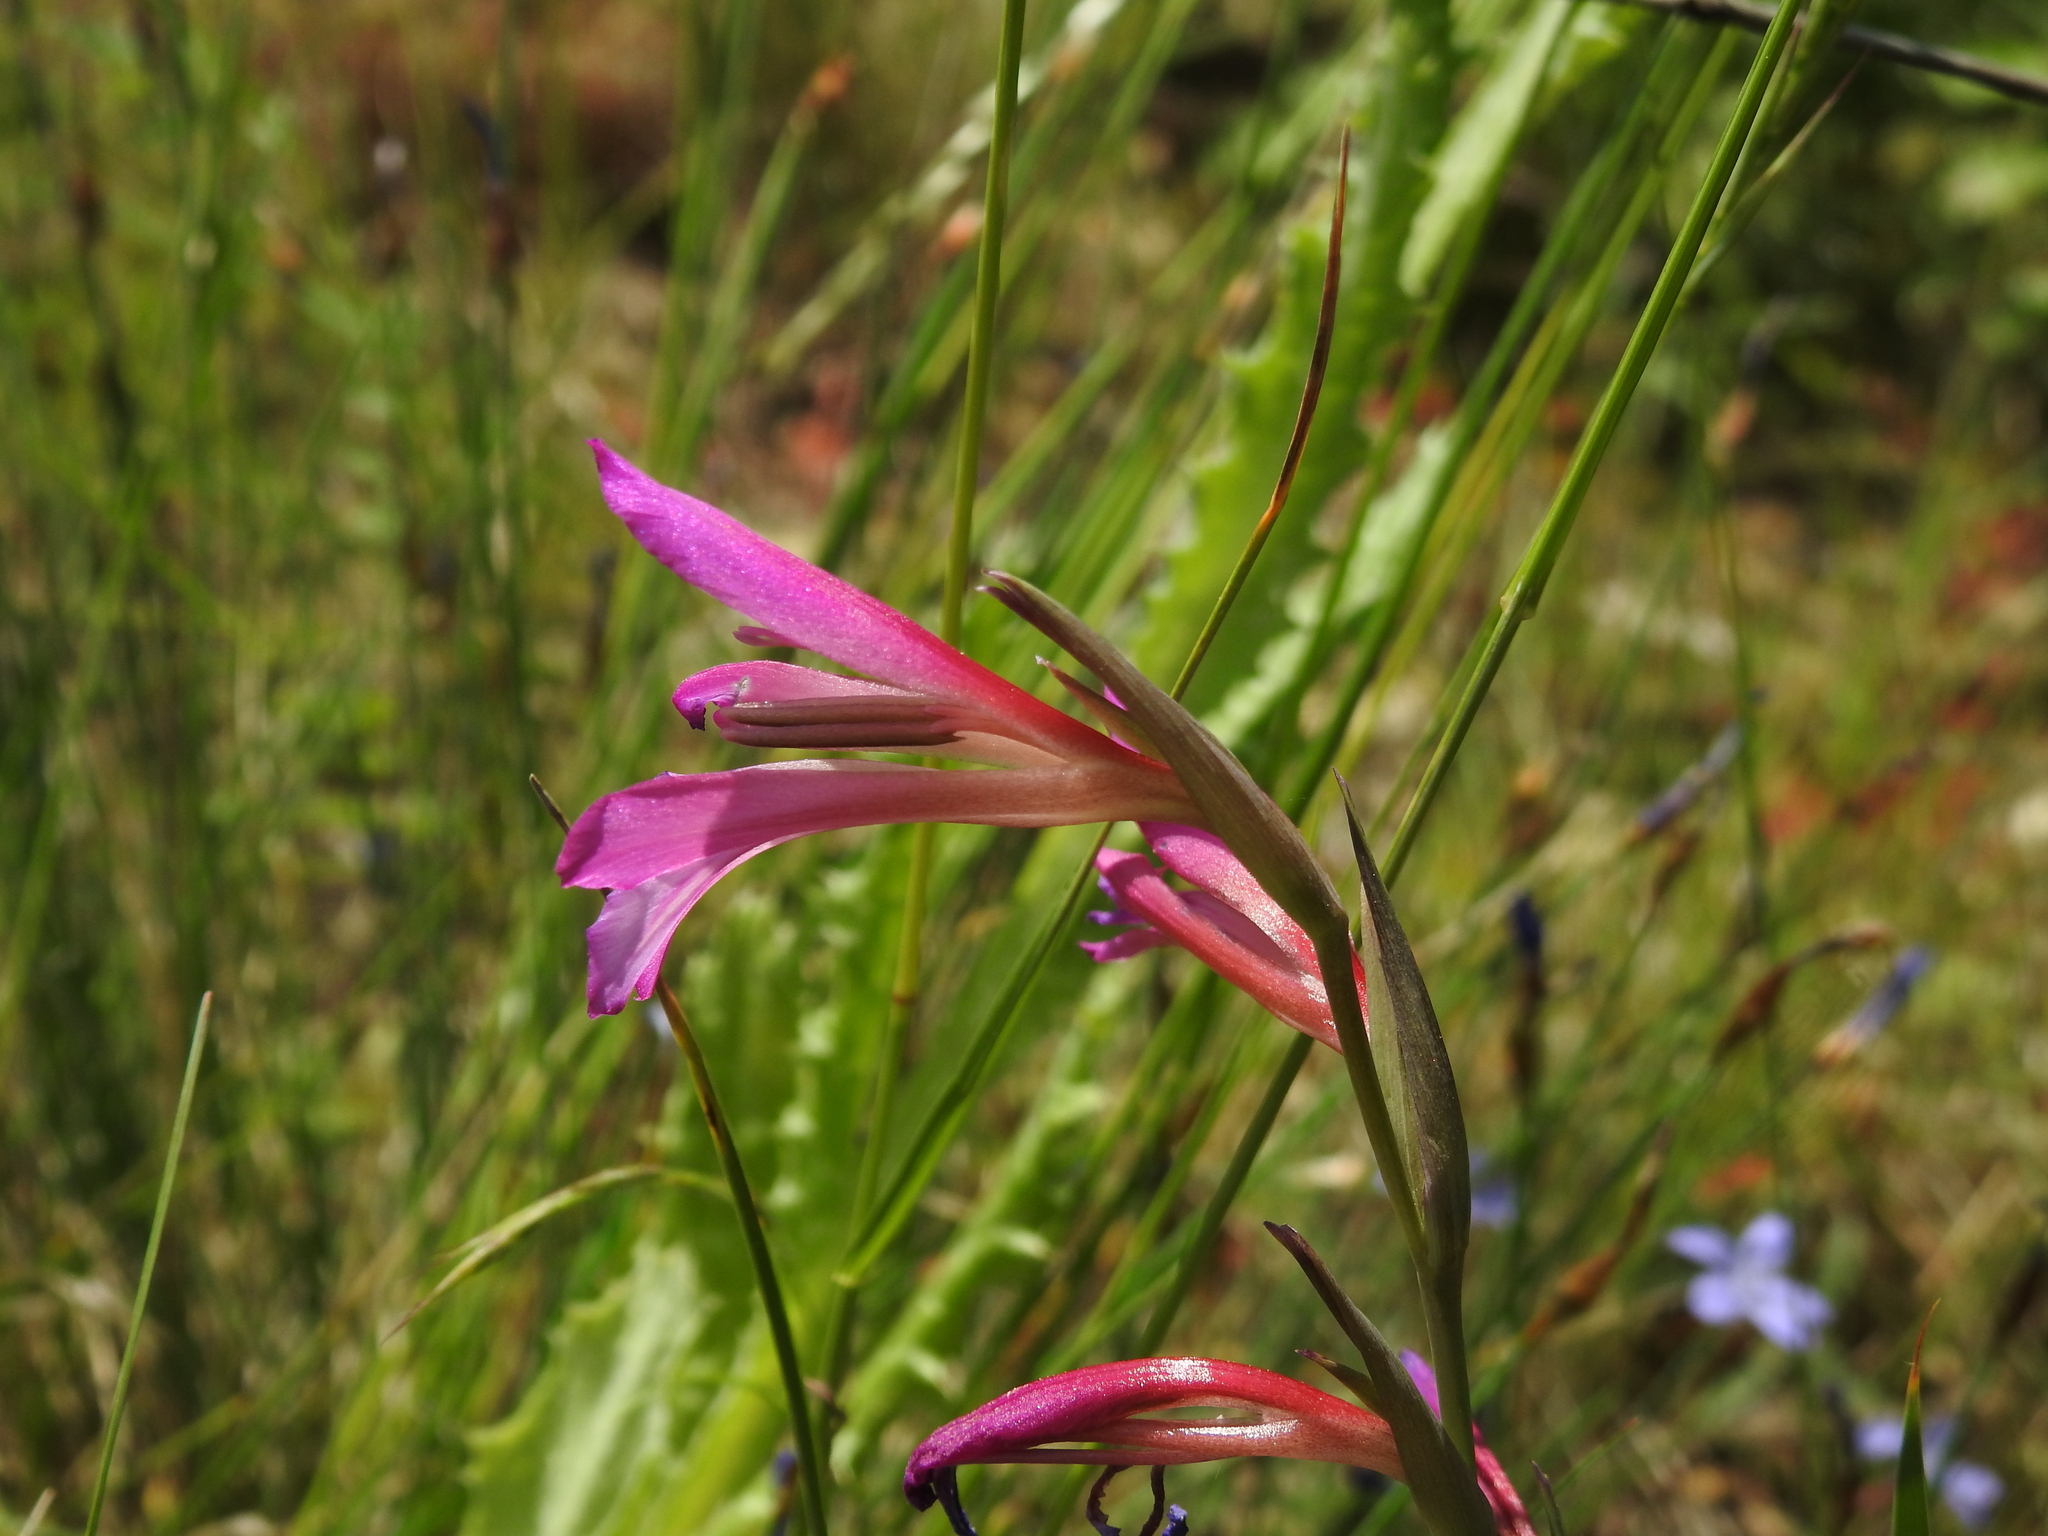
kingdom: Plantae
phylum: Tracheophyta
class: Liliopsida
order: Asparagales
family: Iridaceae
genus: Gladiolus
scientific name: Gladiolus italicus
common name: Field gladiolus
